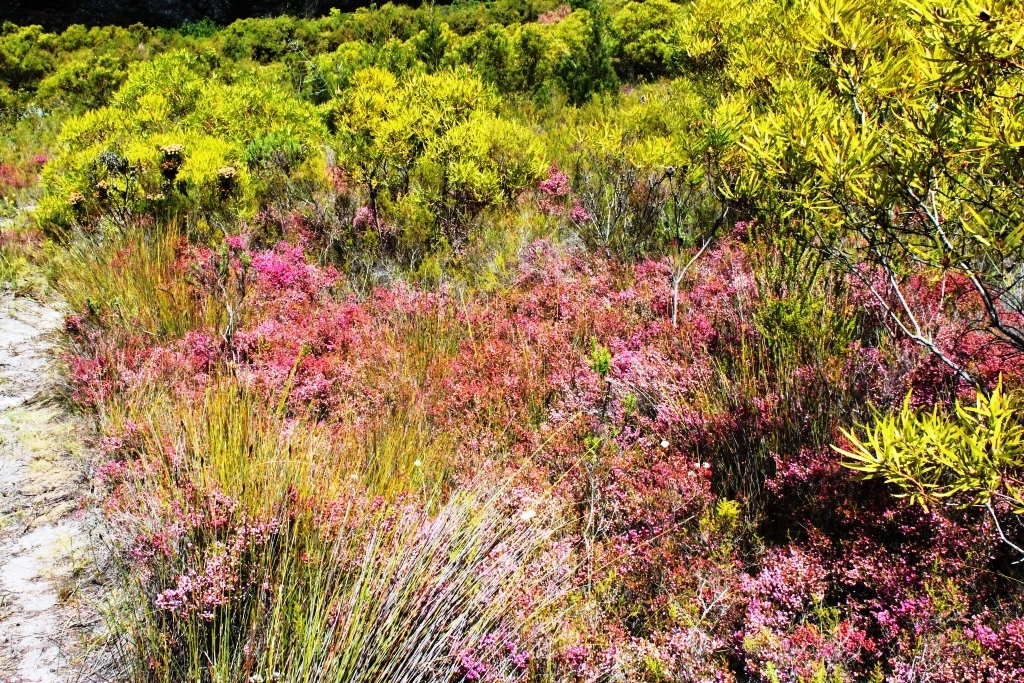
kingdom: Plantae
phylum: Tracheophyta
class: Magnoliopsida
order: Ericales
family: Ericaceae
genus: Erica
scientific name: Erica melanthera
